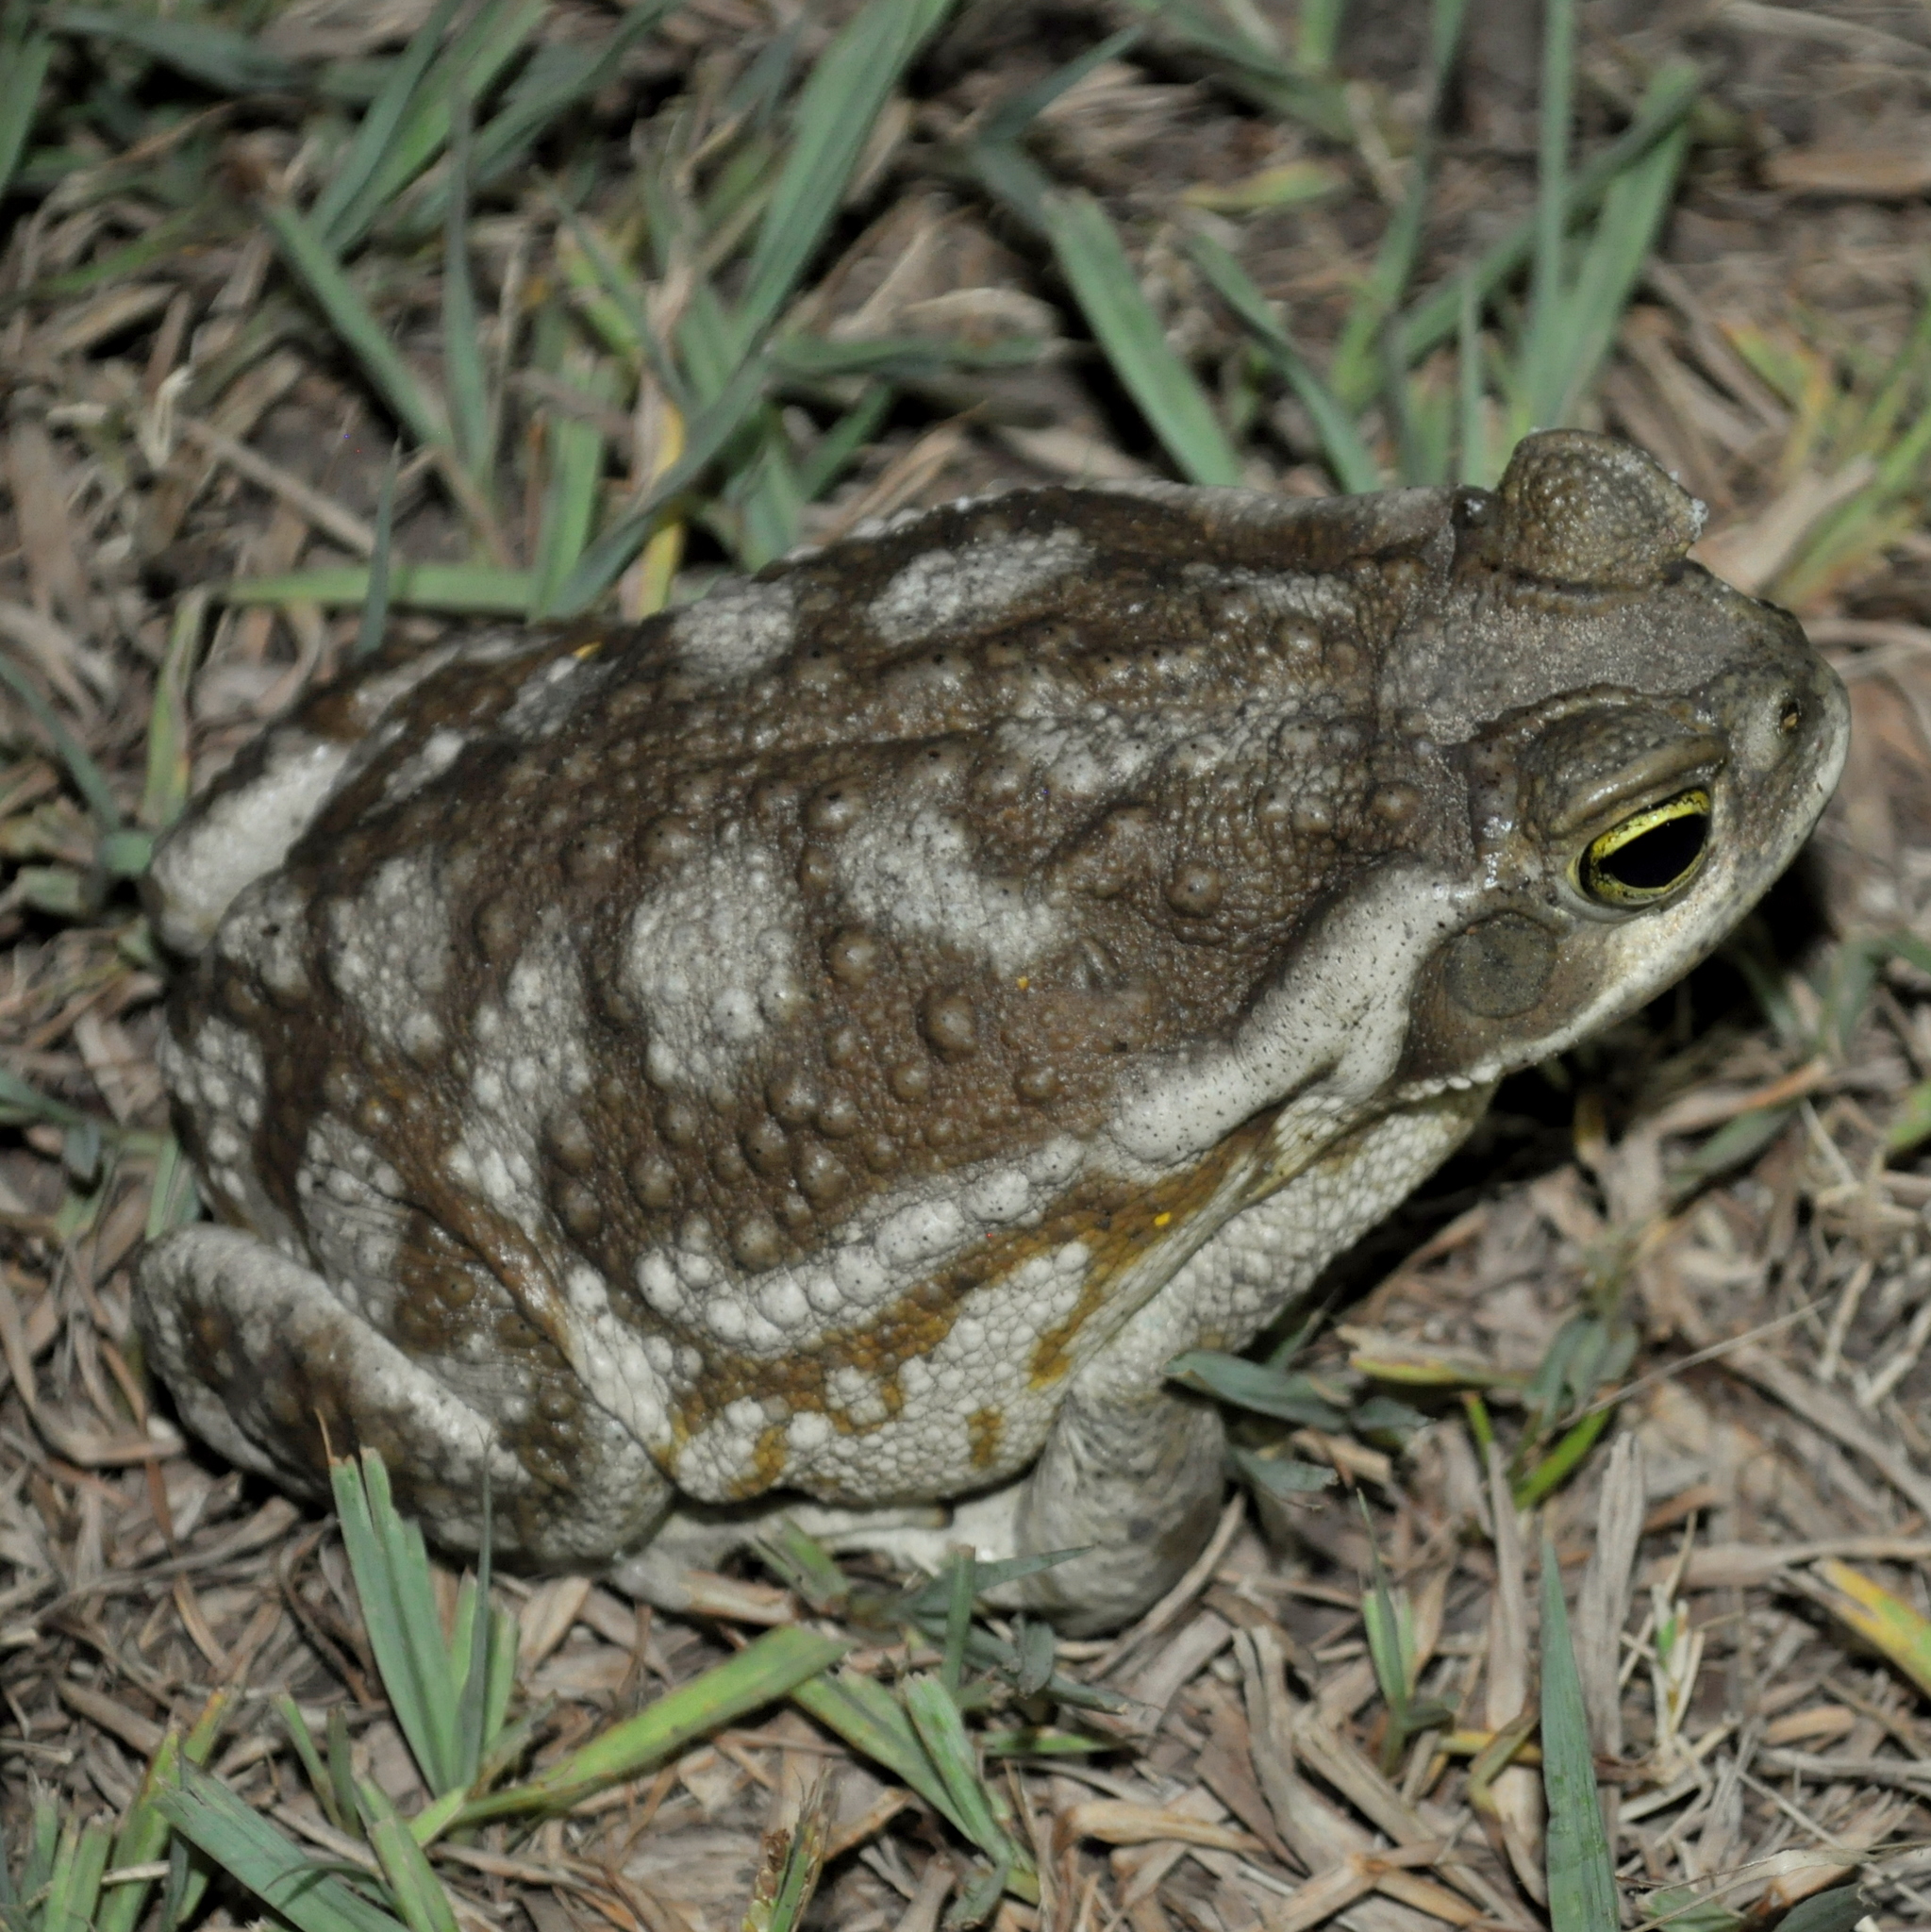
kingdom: Animalia
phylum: Chordata
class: Amphibia
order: Anura
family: Bufonidae
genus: Rhinella
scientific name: Rhinella arenarum
